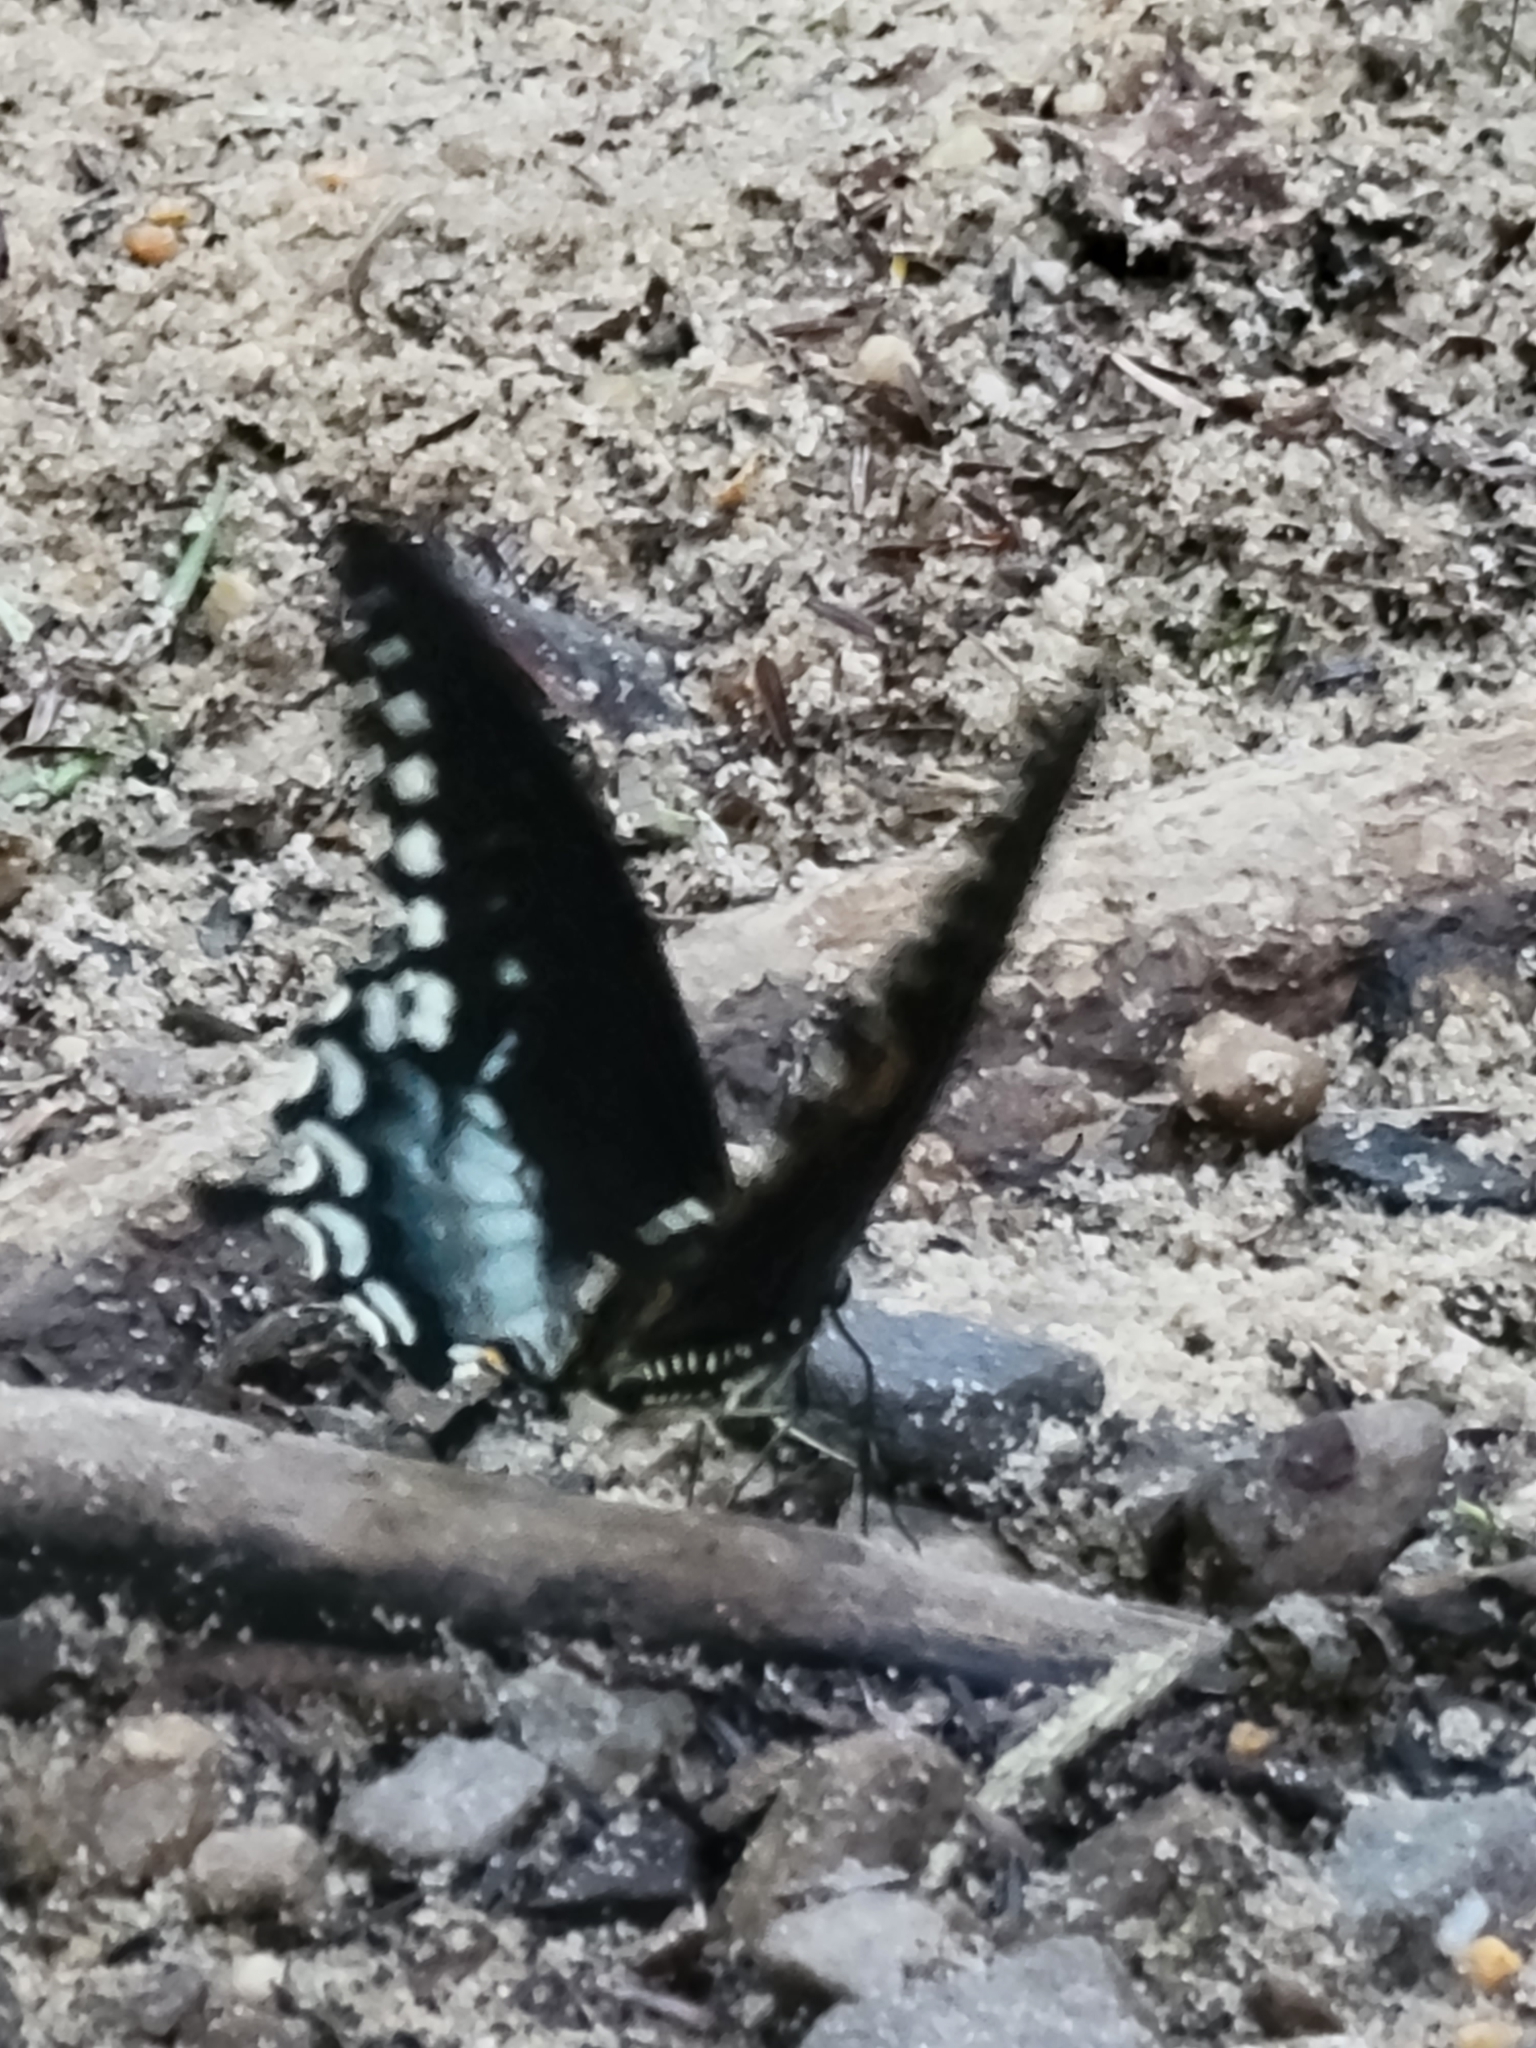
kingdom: Animalia
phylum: Arthropoda
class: Insecta
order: Lepidoptera
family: Papilionidae
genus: Papilio
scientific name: Papilio troilus
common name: Spicebush swallowtail
